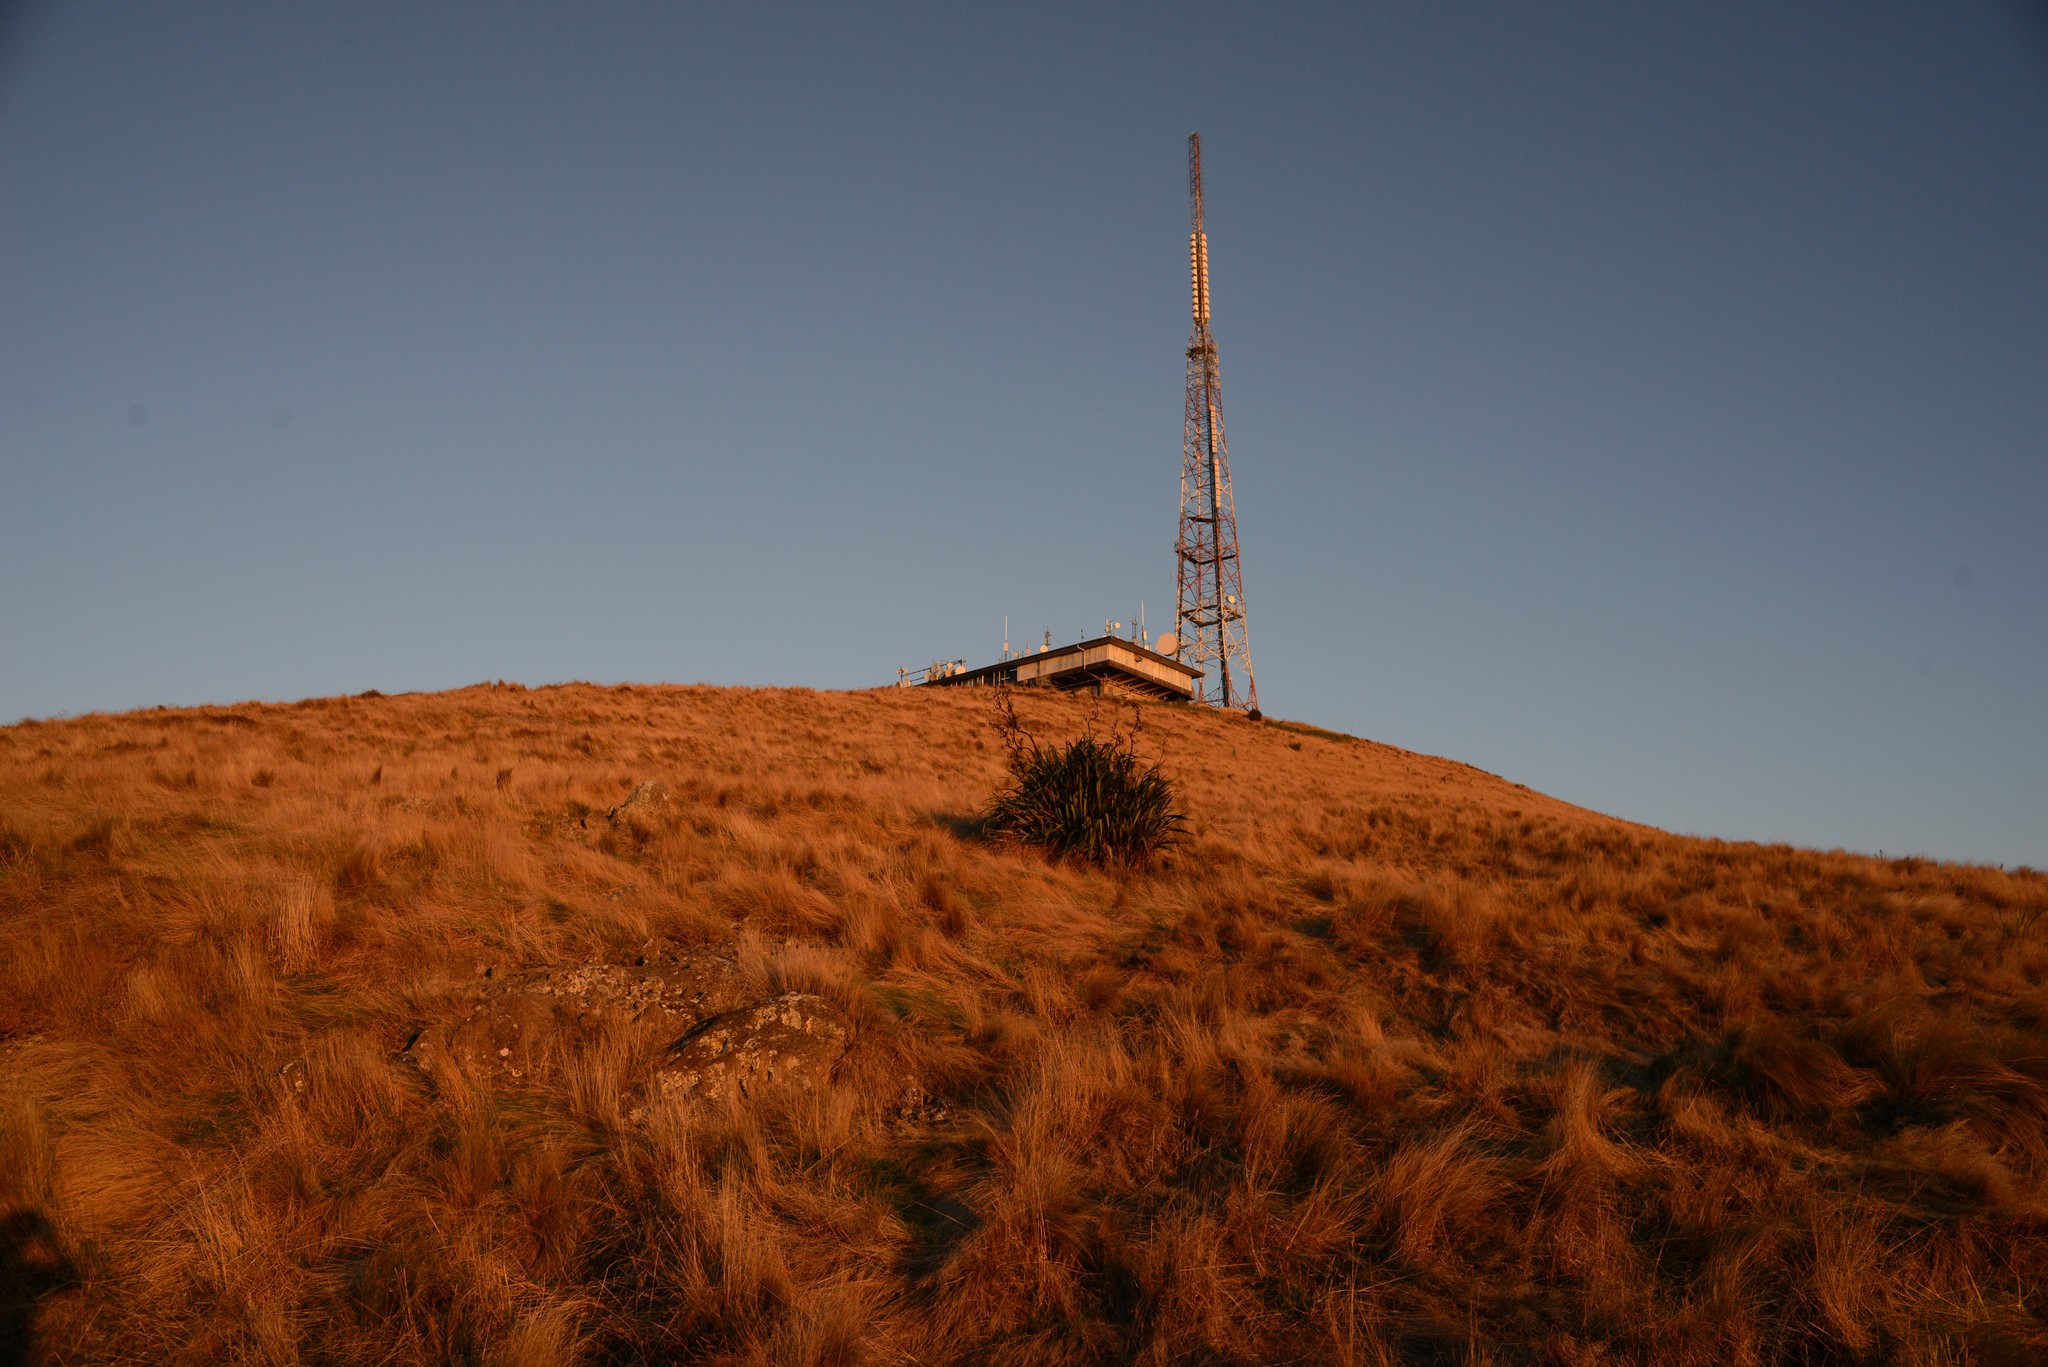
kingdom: Plantae
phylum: Tracheophyta
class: Liliopsida
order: Asparagales
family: Asphodelaceae
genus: Phormium
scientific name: Phormium tenax
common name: New zealand flax
